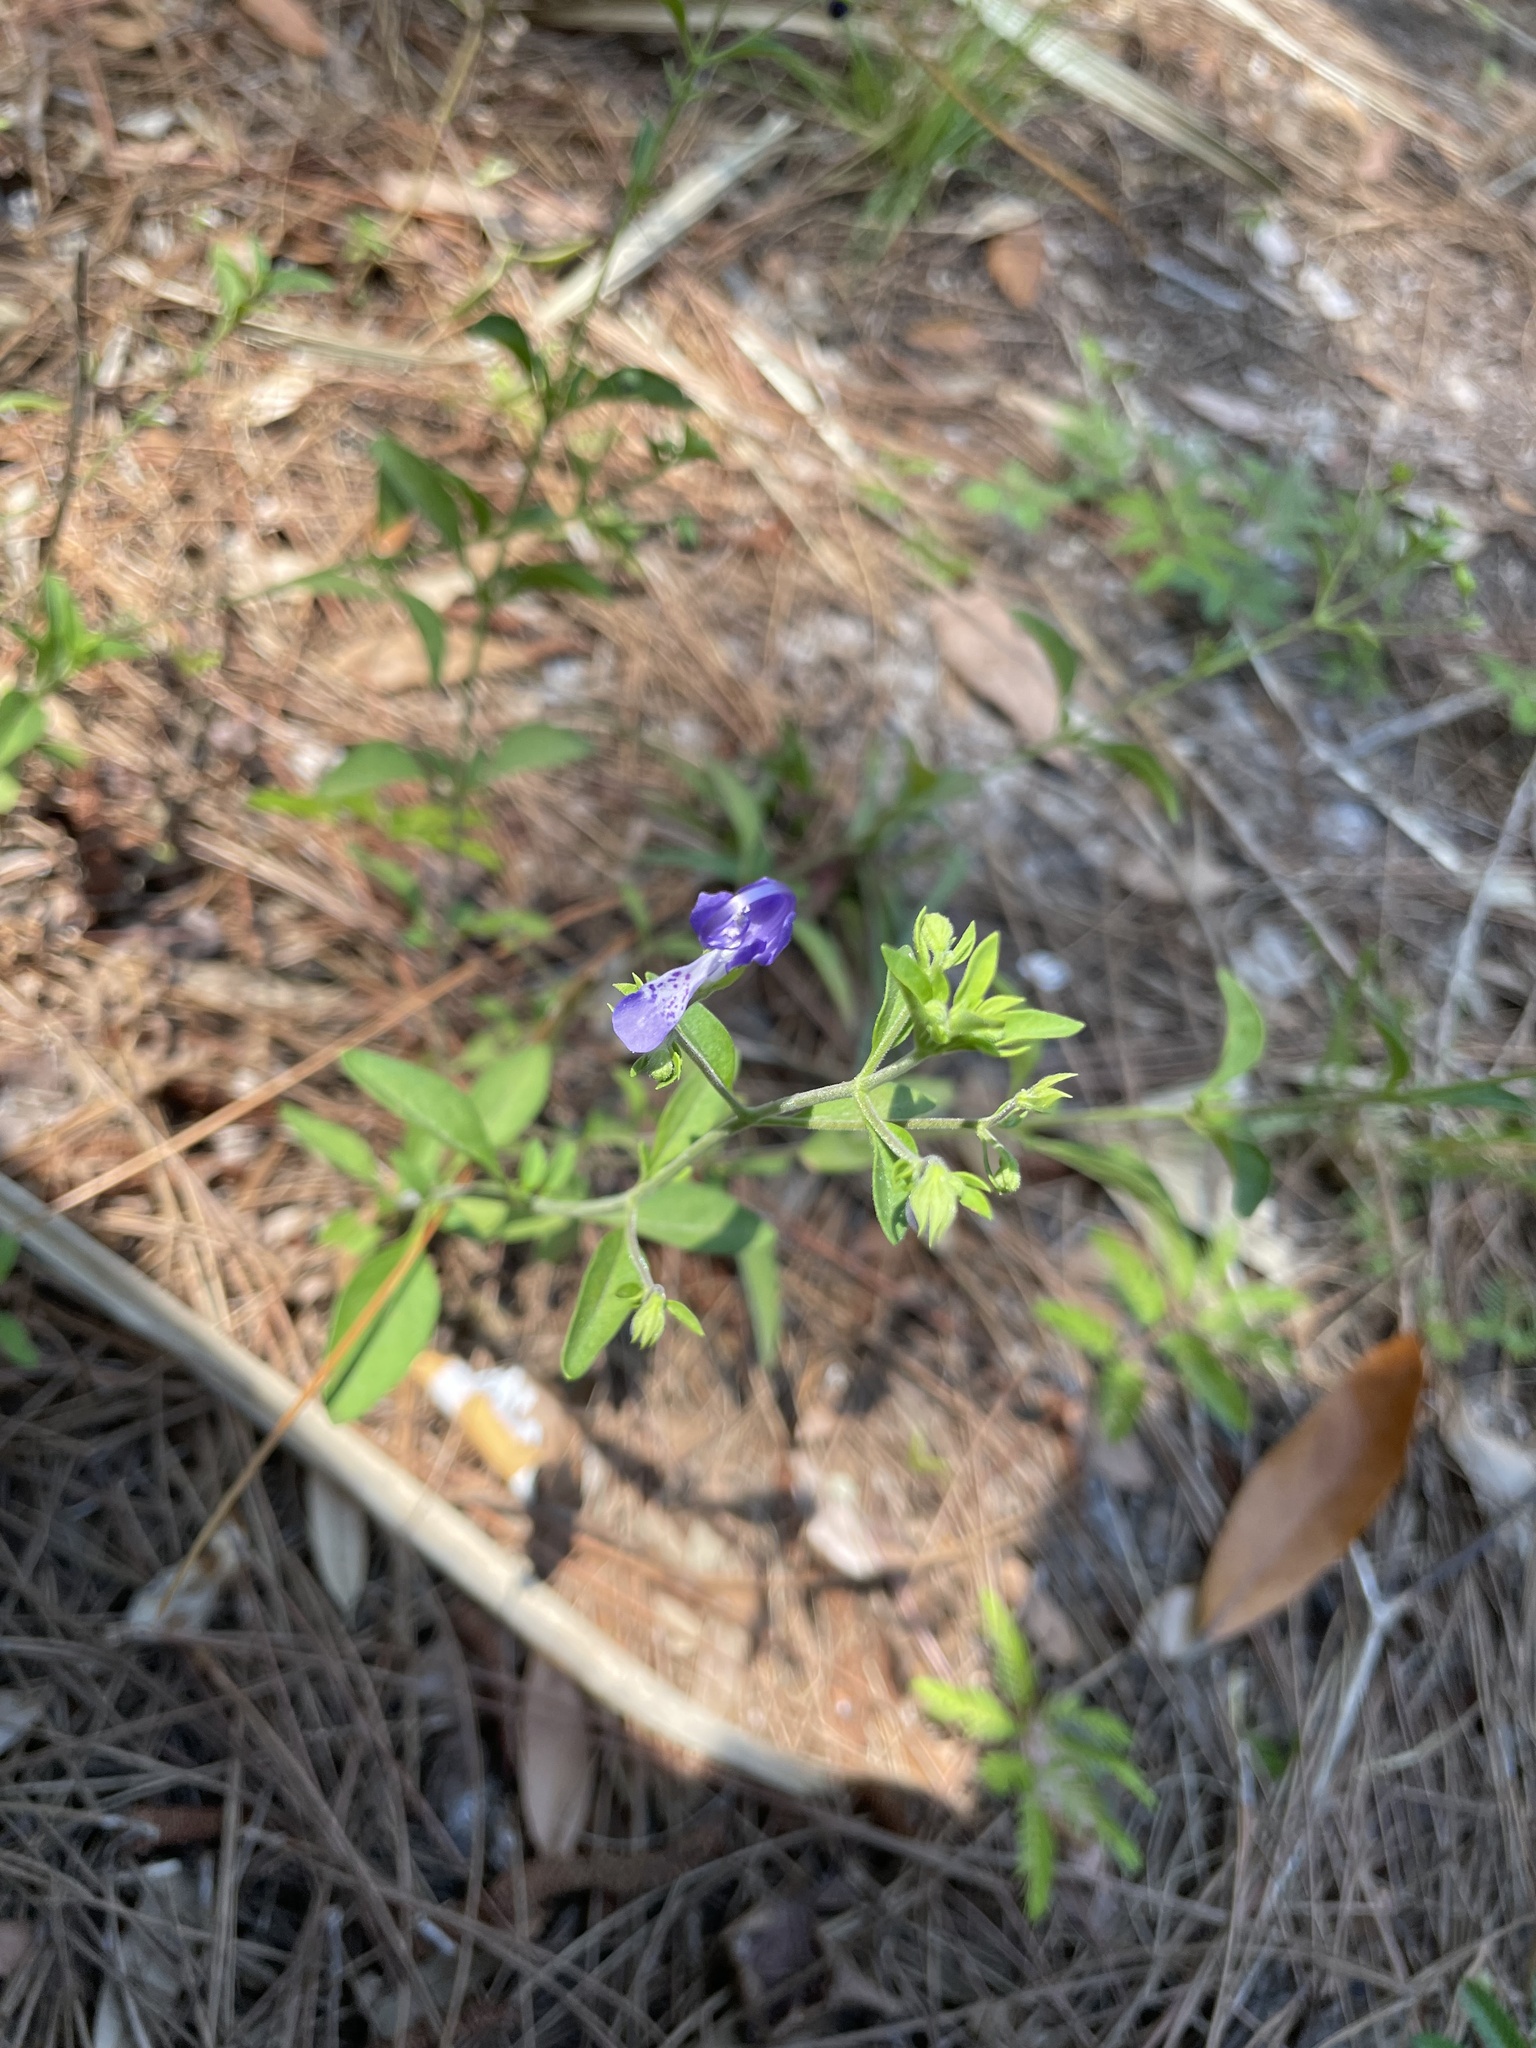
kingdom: Plantae
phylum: Tracheophyta
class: Magnoliopsida
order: Lamiales
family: Lamiaceae
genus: Trichostema
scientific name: Trichostema fruticosum
